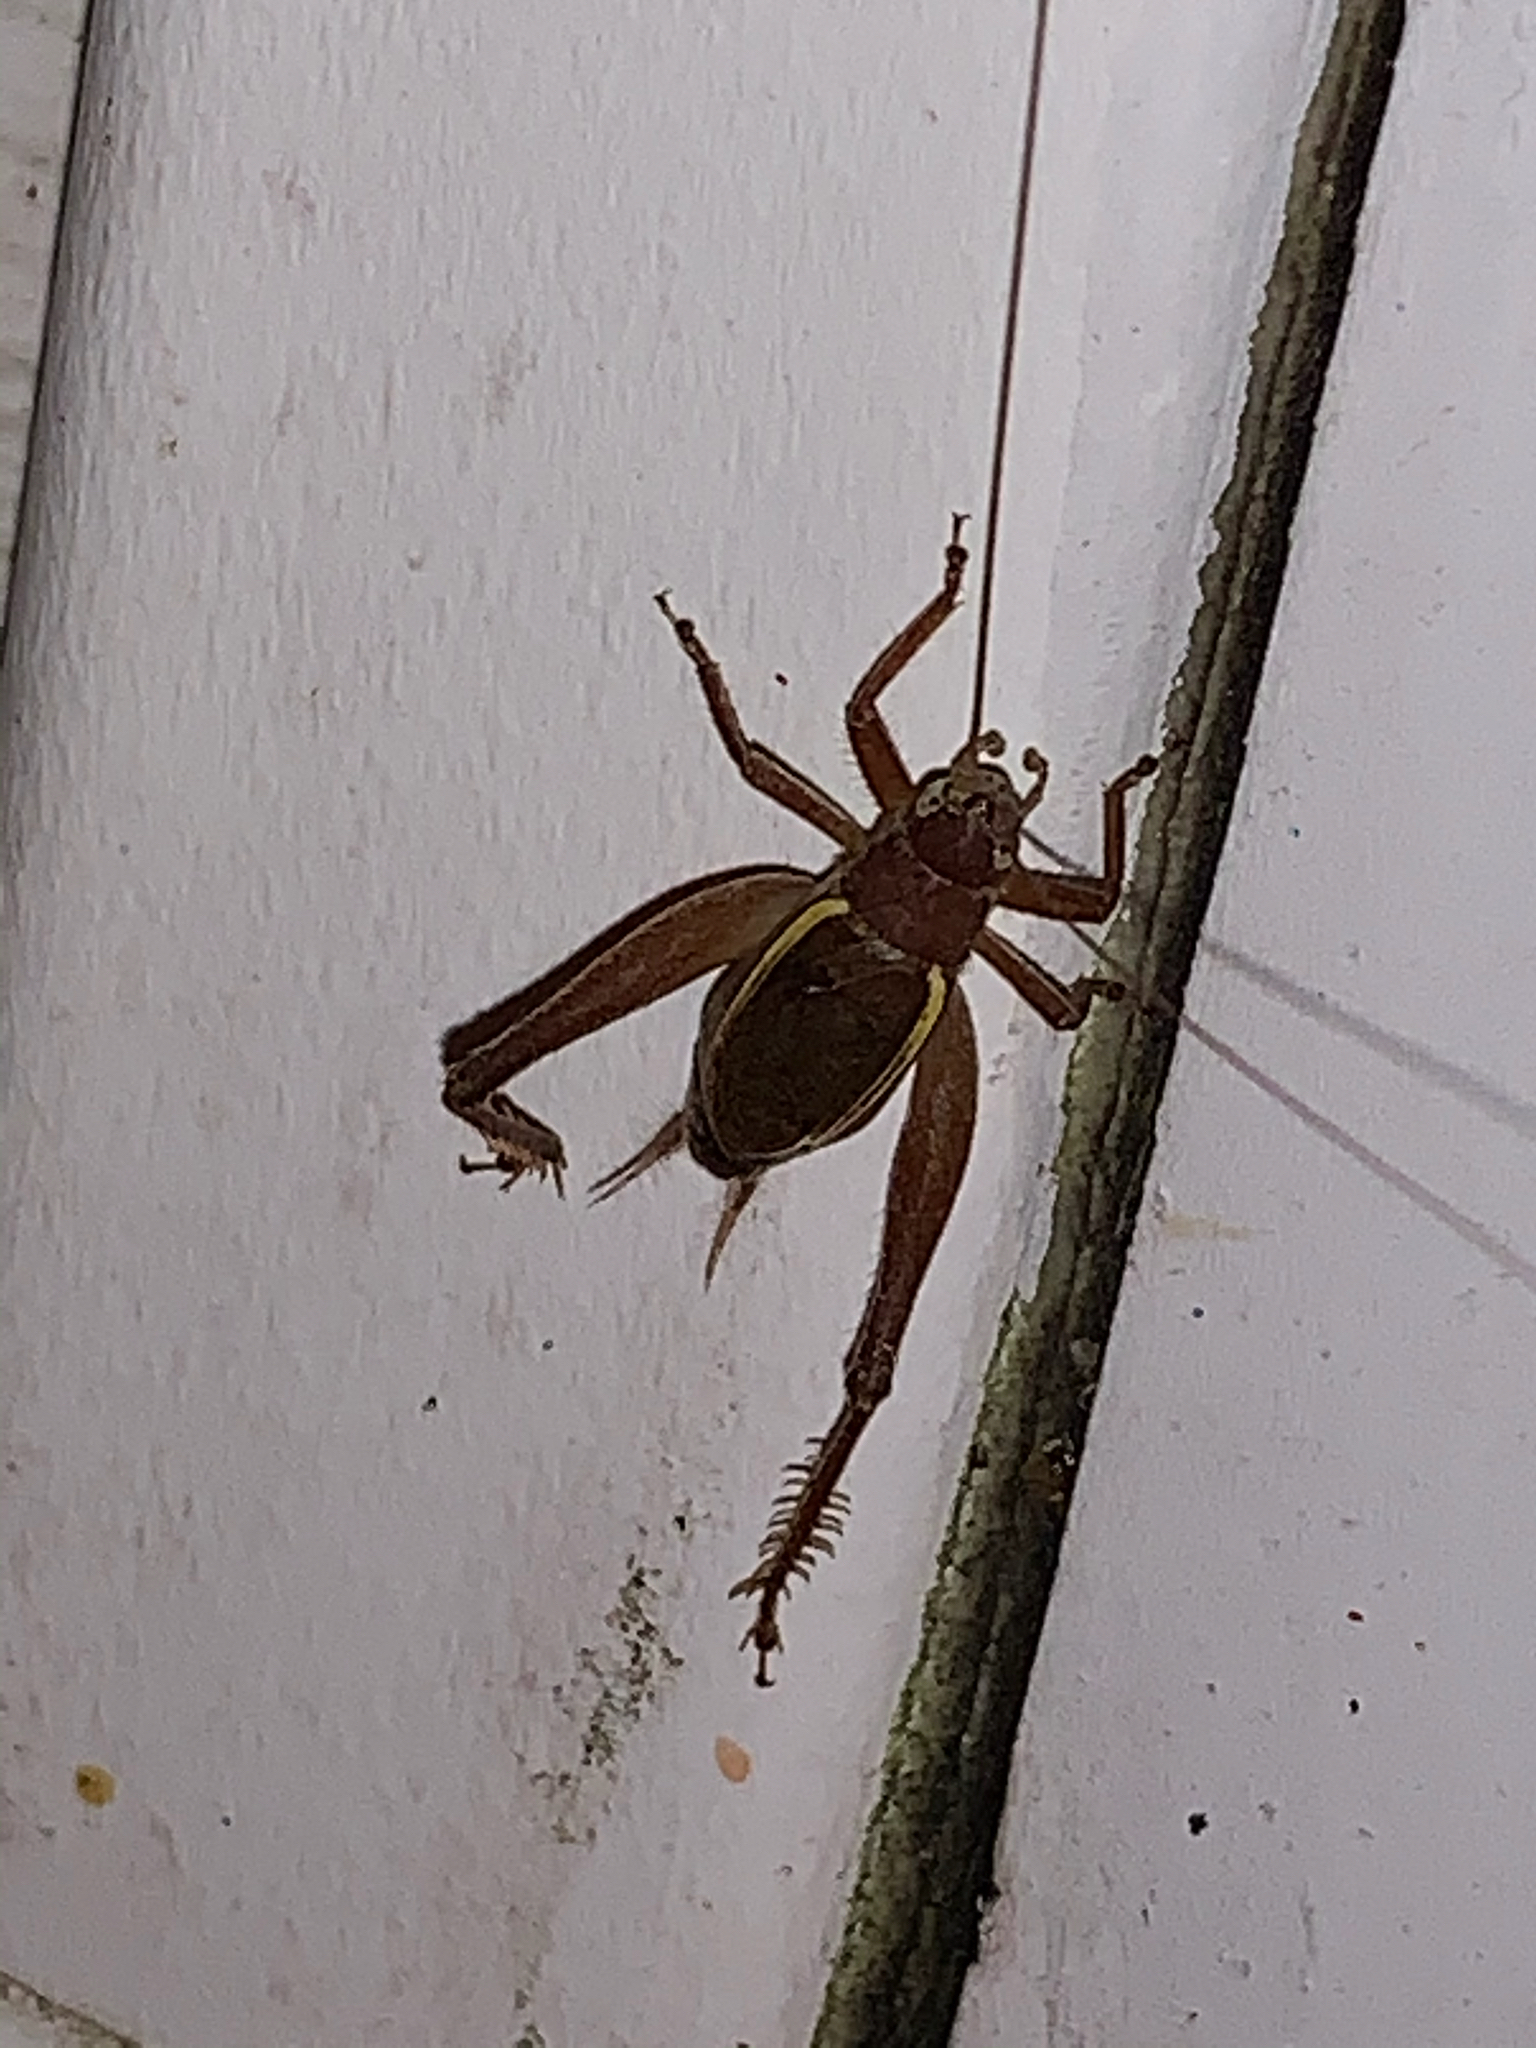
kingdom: Animalia
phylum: Arthropoda
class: Insecta
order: Orthoptera
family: Gryllidae
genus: Hapithus
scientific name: Hapithus agitator
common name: Restless bush cricket
